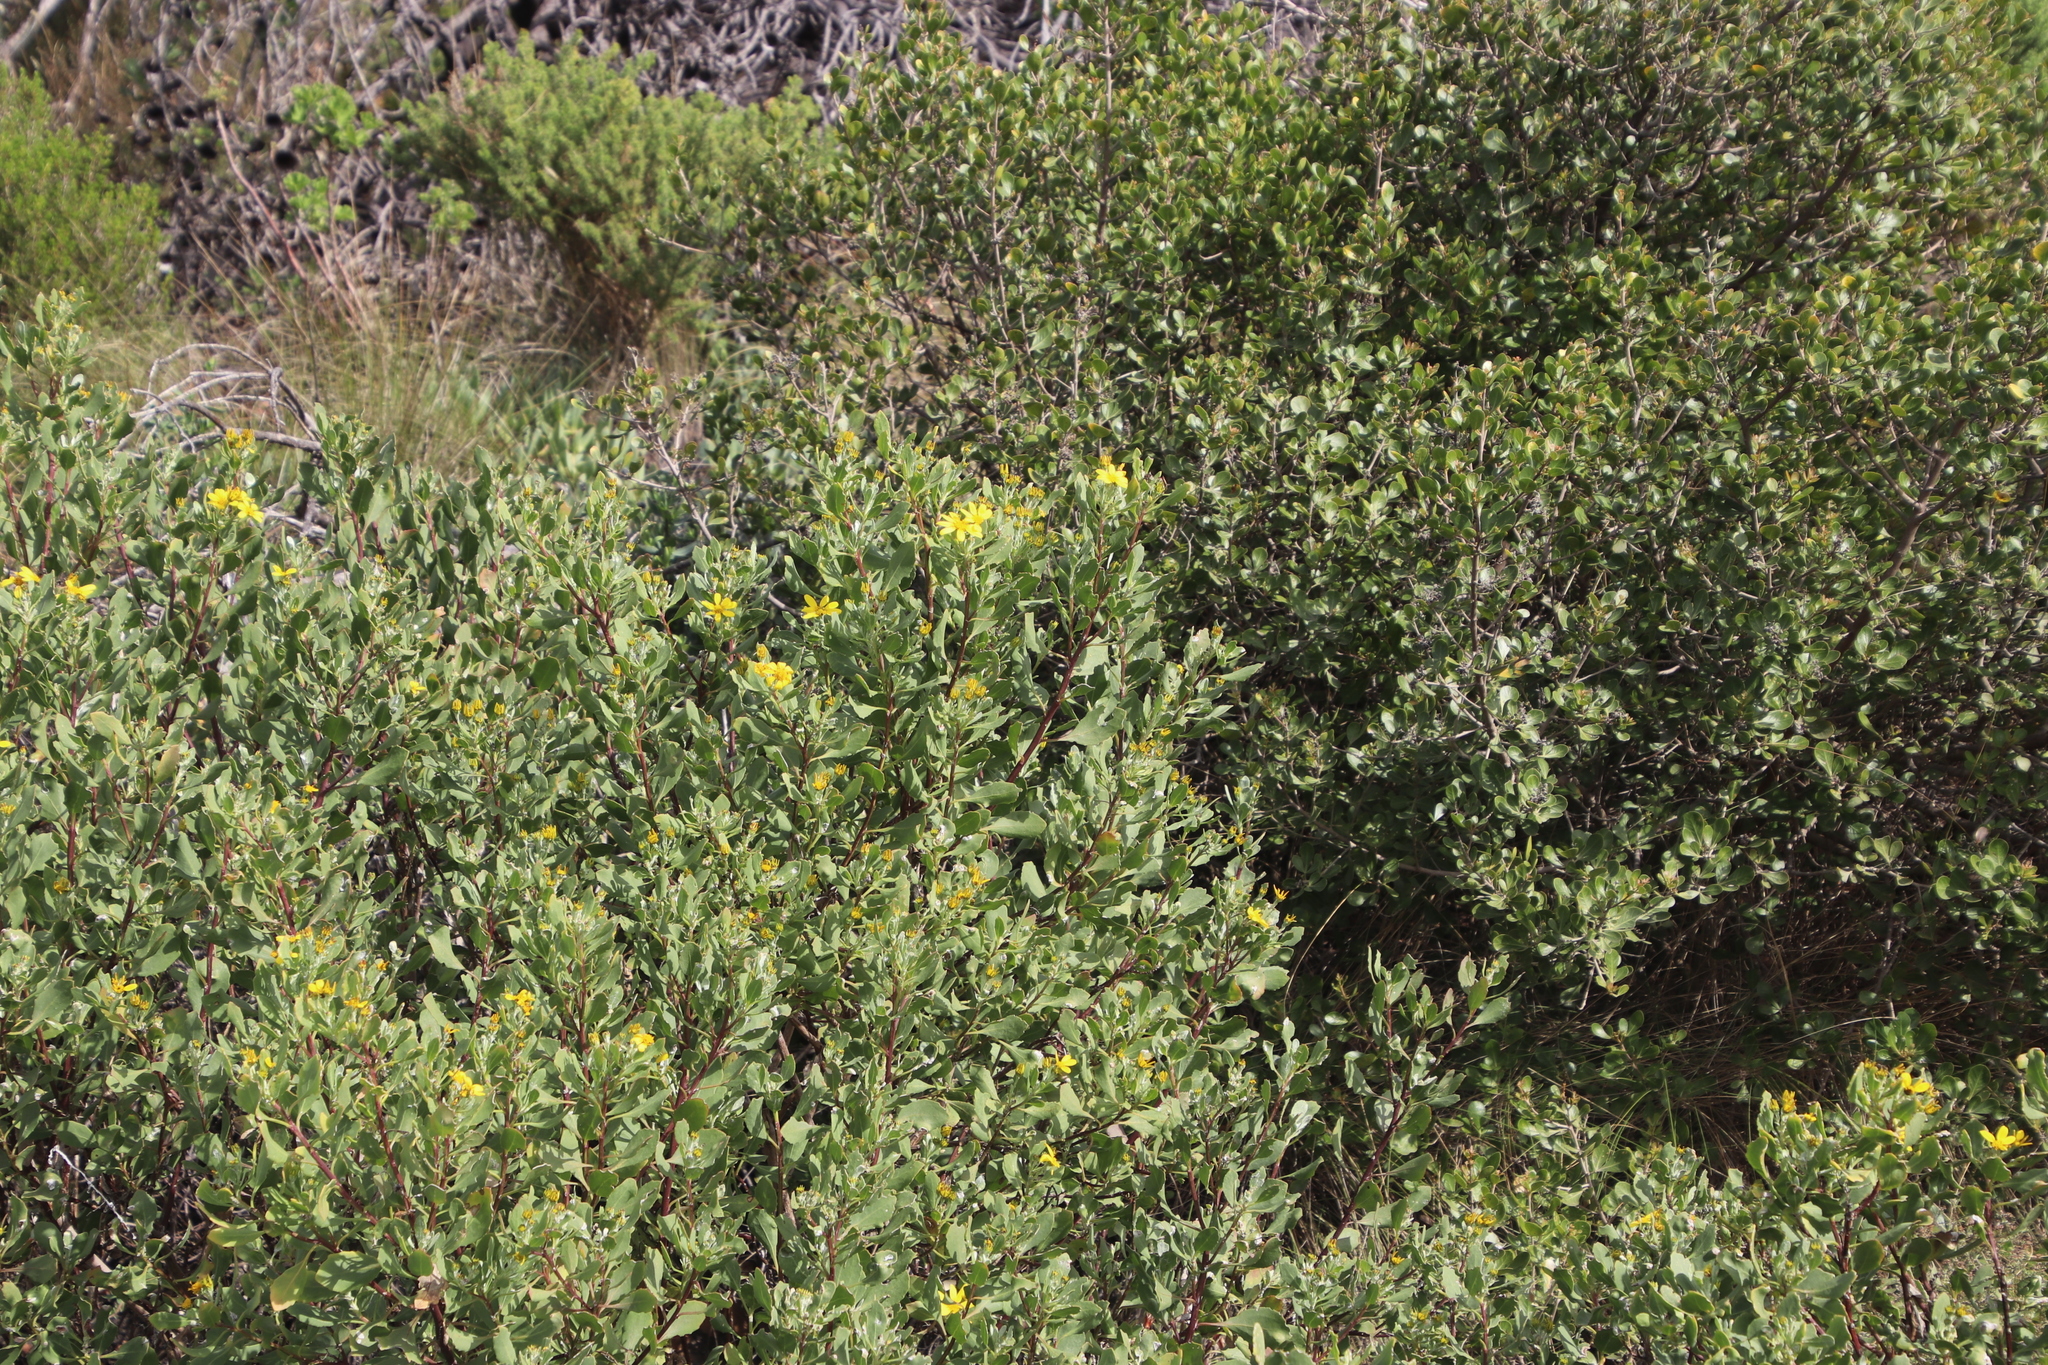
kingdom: Plantae
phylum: Tracheophyta
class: Magnoliopsida
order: Asterales
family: Asteraceae
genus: Osteospermum
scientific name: Osteospermum moniliferum
